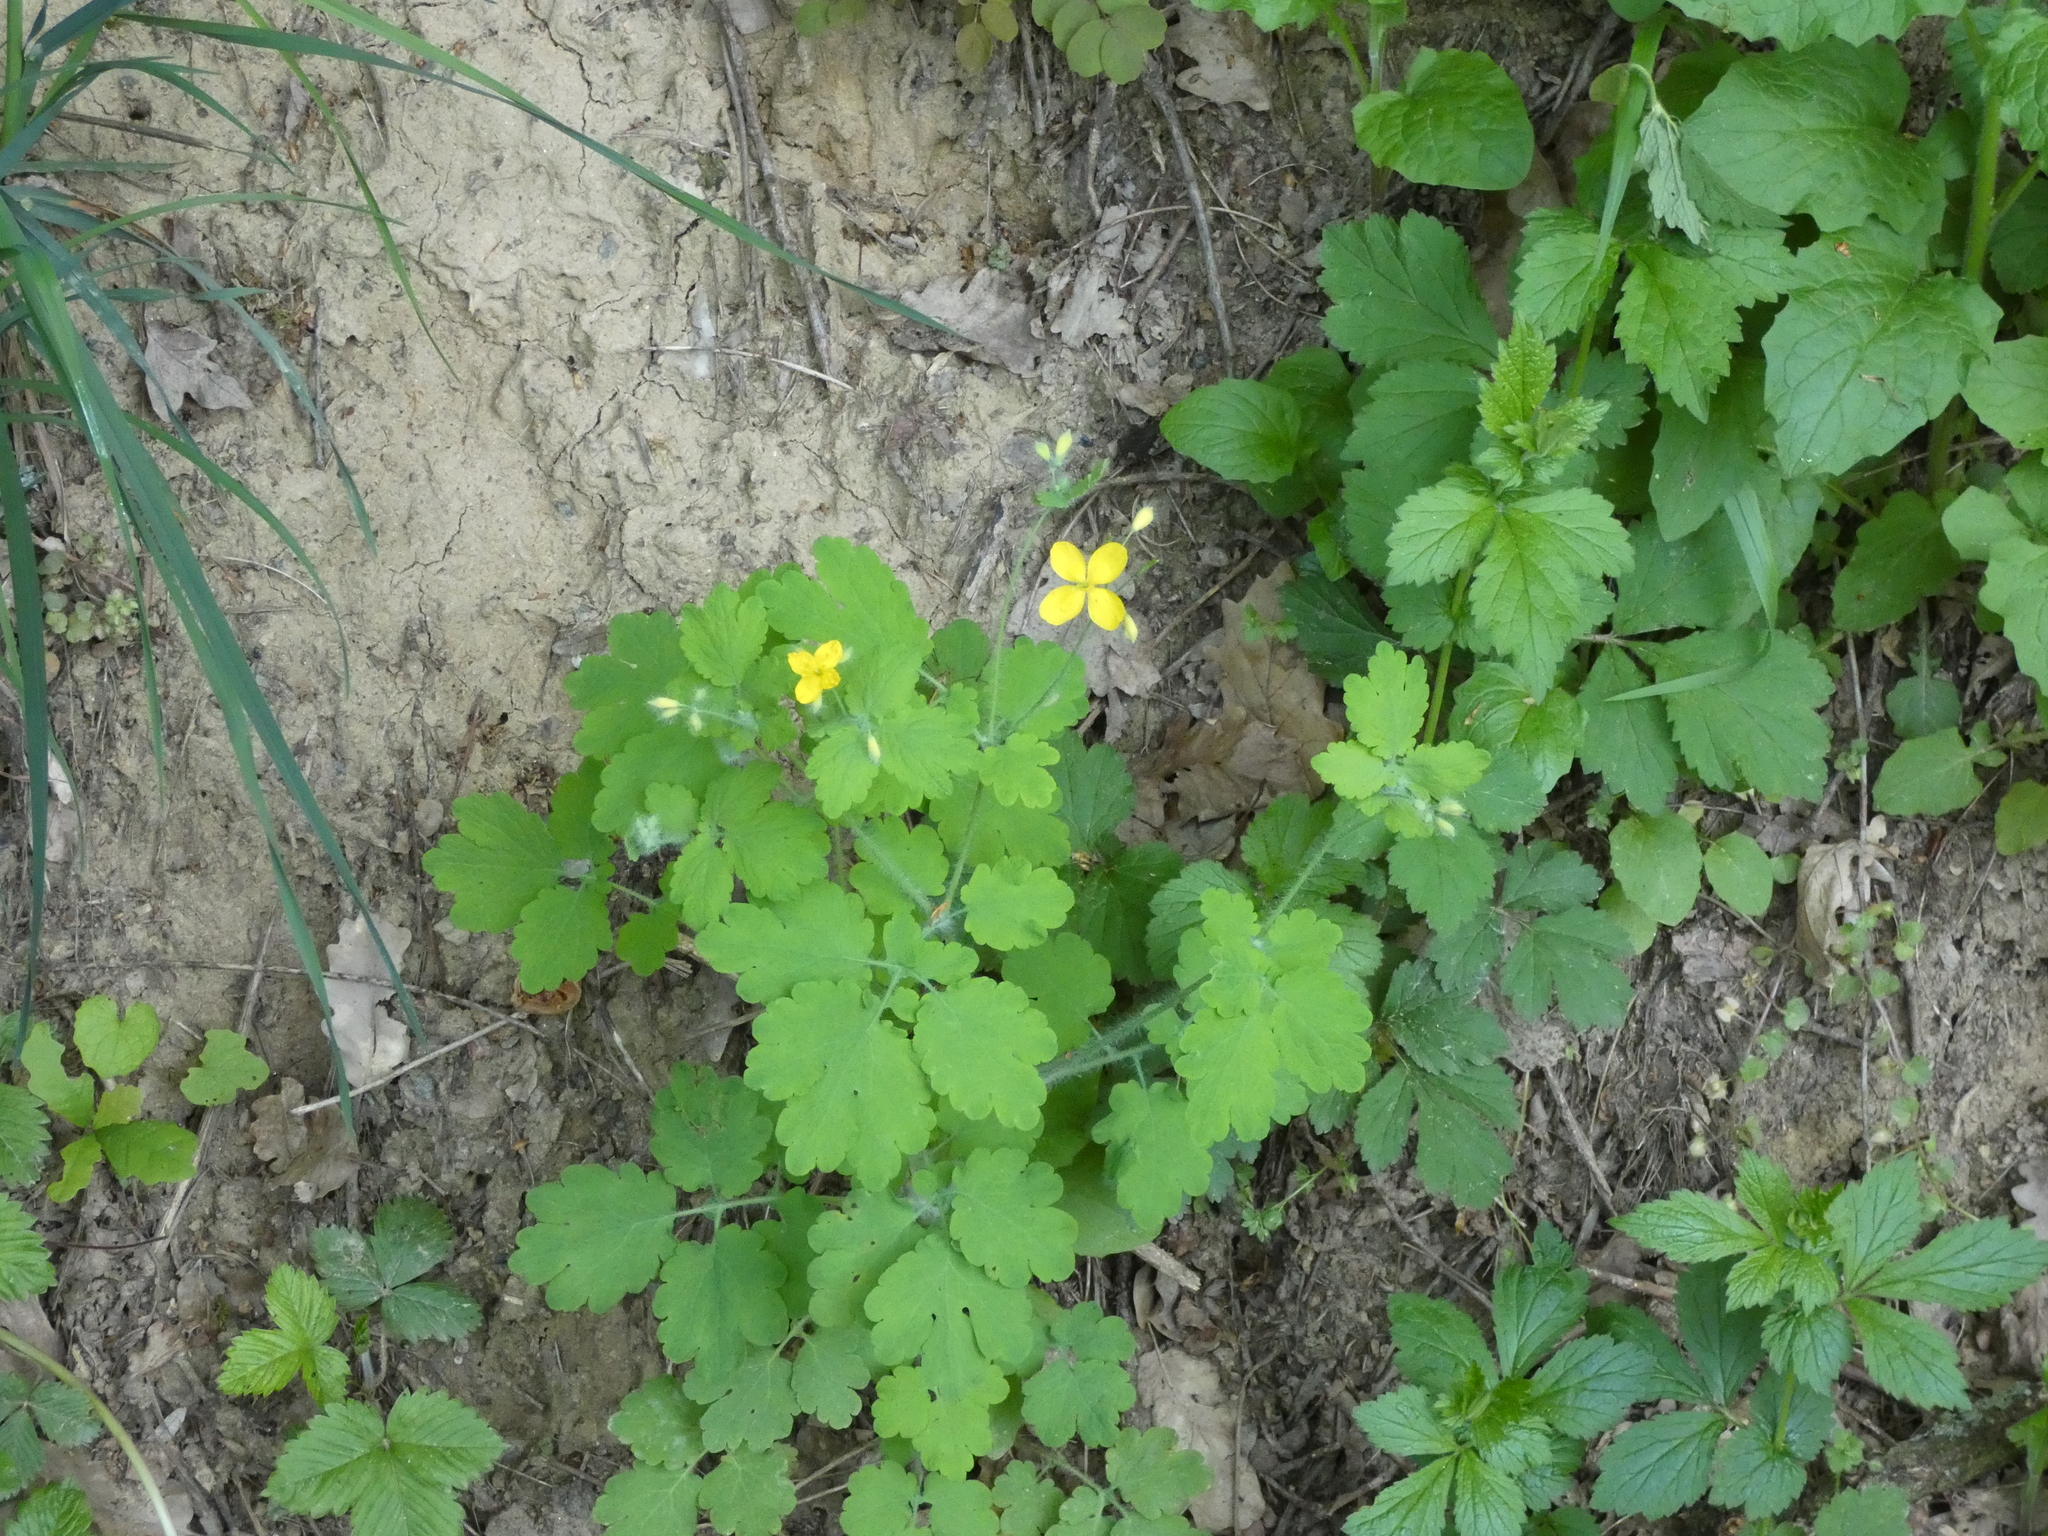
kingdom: Plantae
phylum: Tracheophyta
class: Magnoliopsida
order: Ranunculales
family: Papaveraceae
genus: Chelidonium
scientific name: Chelidonium majus
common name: Greater celandine
